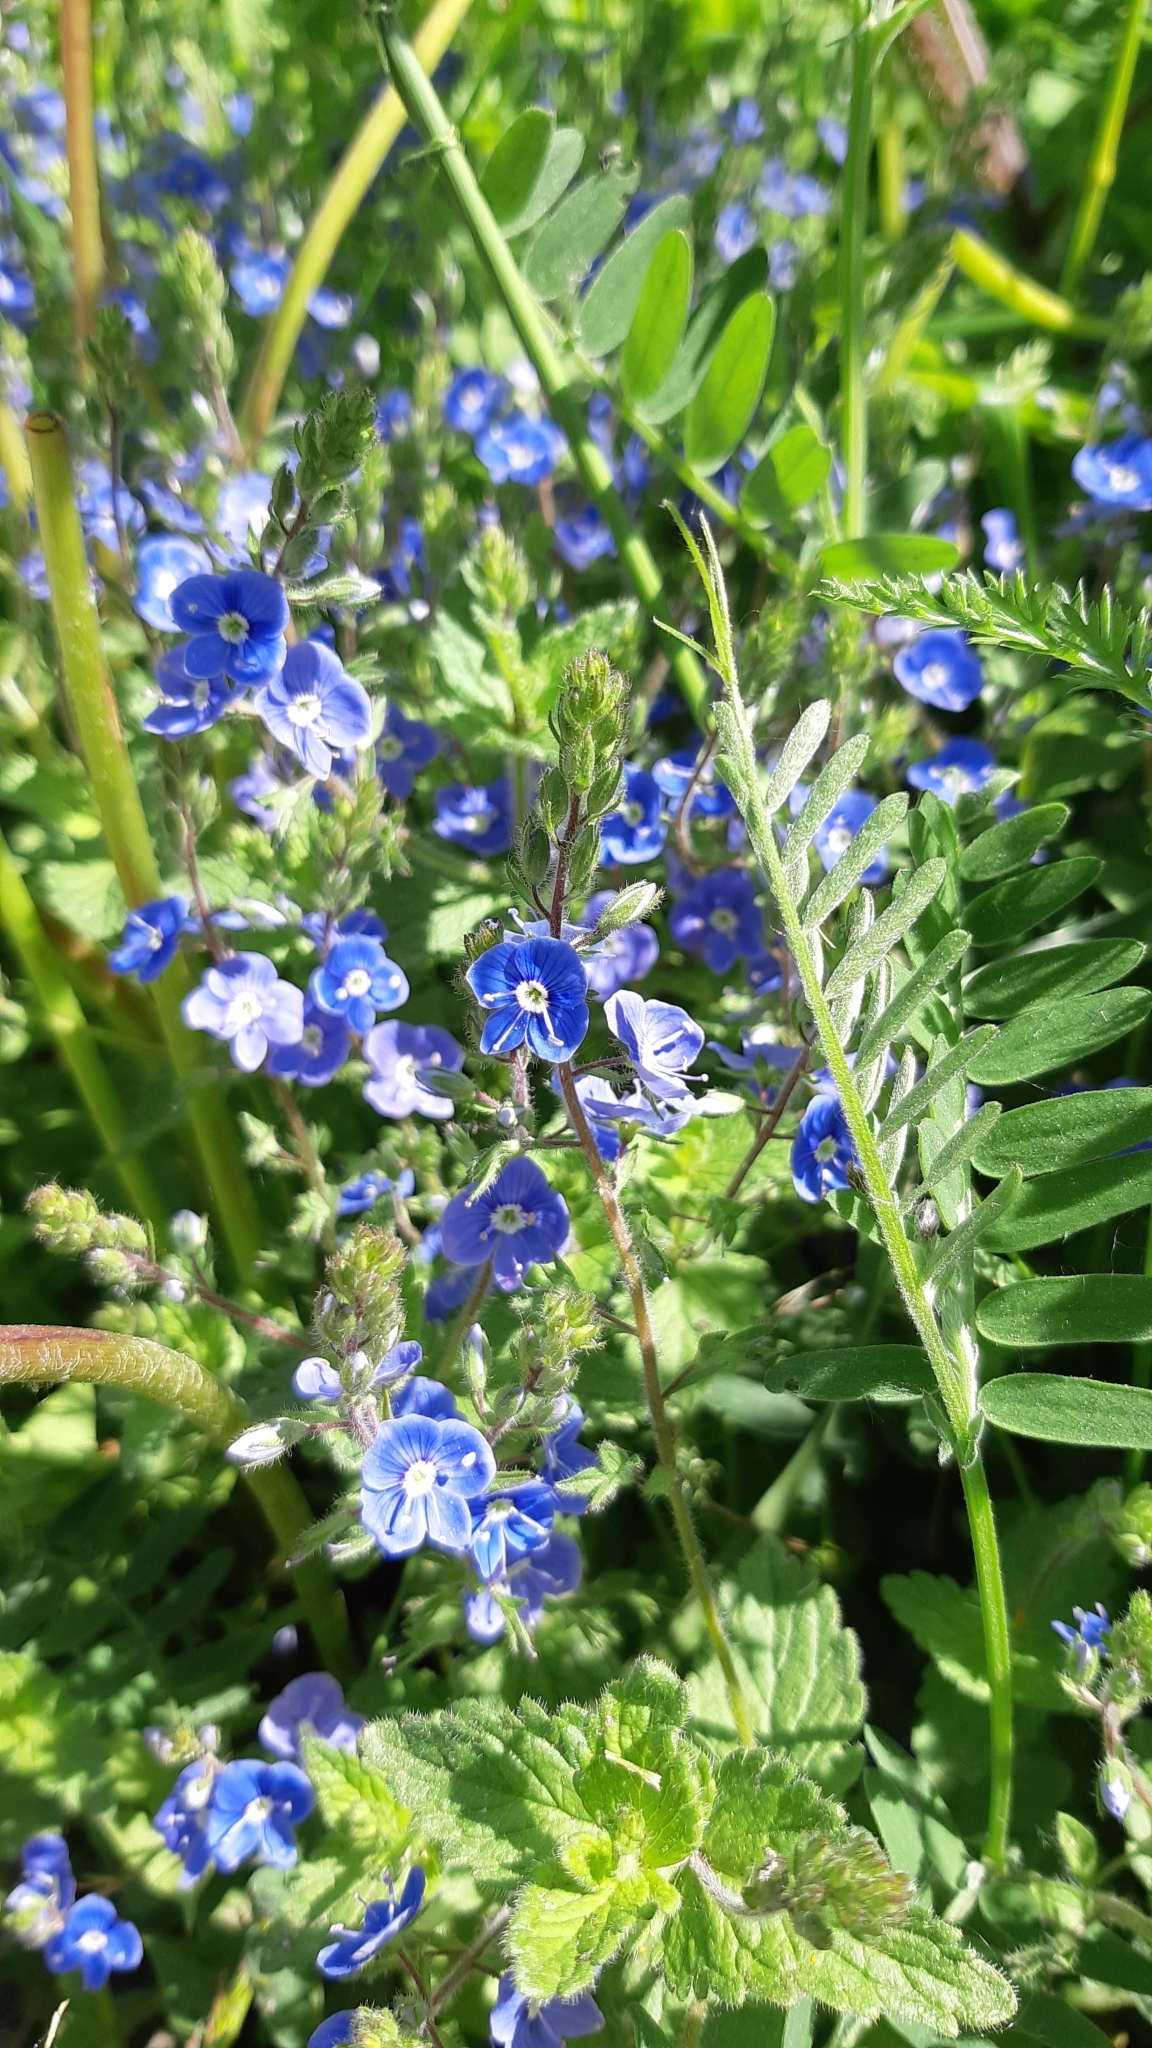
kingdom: Plantae
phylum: Tracheophyta
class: Magnoliopsida
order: Lamiales
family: Plantaginaceae
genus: Veronica
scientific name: Veronica chamaedrys
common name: Germander speedwell
